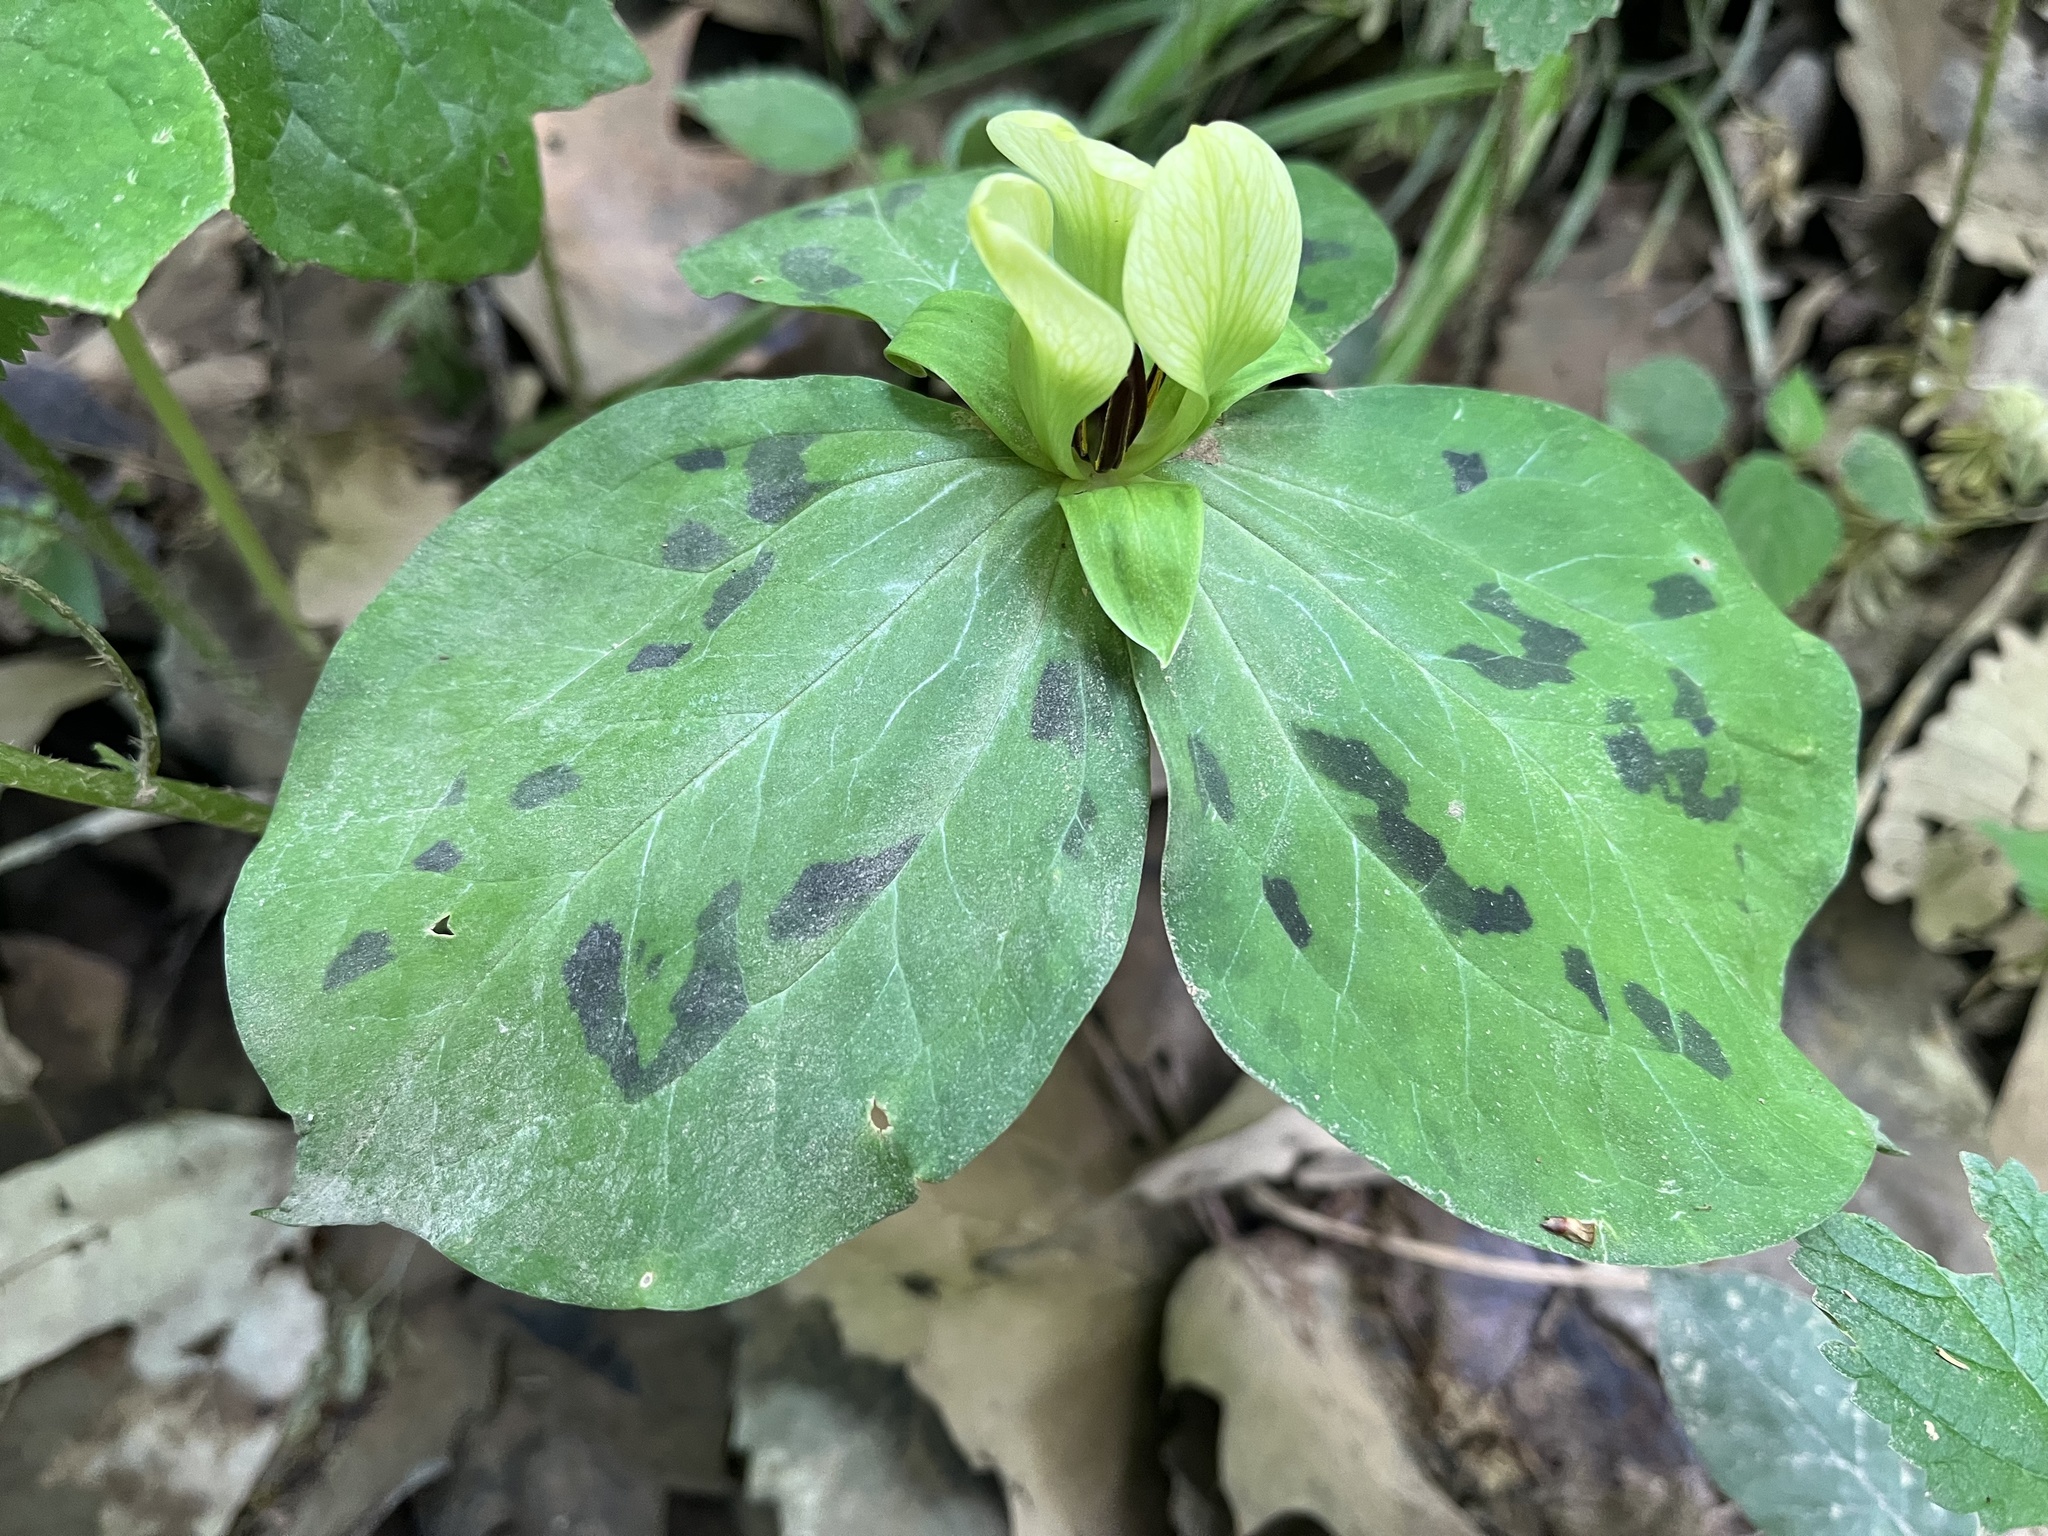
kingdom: Plantae
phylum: Tracheophyta
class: Liliopsida
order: Liliales
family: Melanthiaceae
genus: Trillium
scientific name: Trillium discolor
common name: Faded trillium
